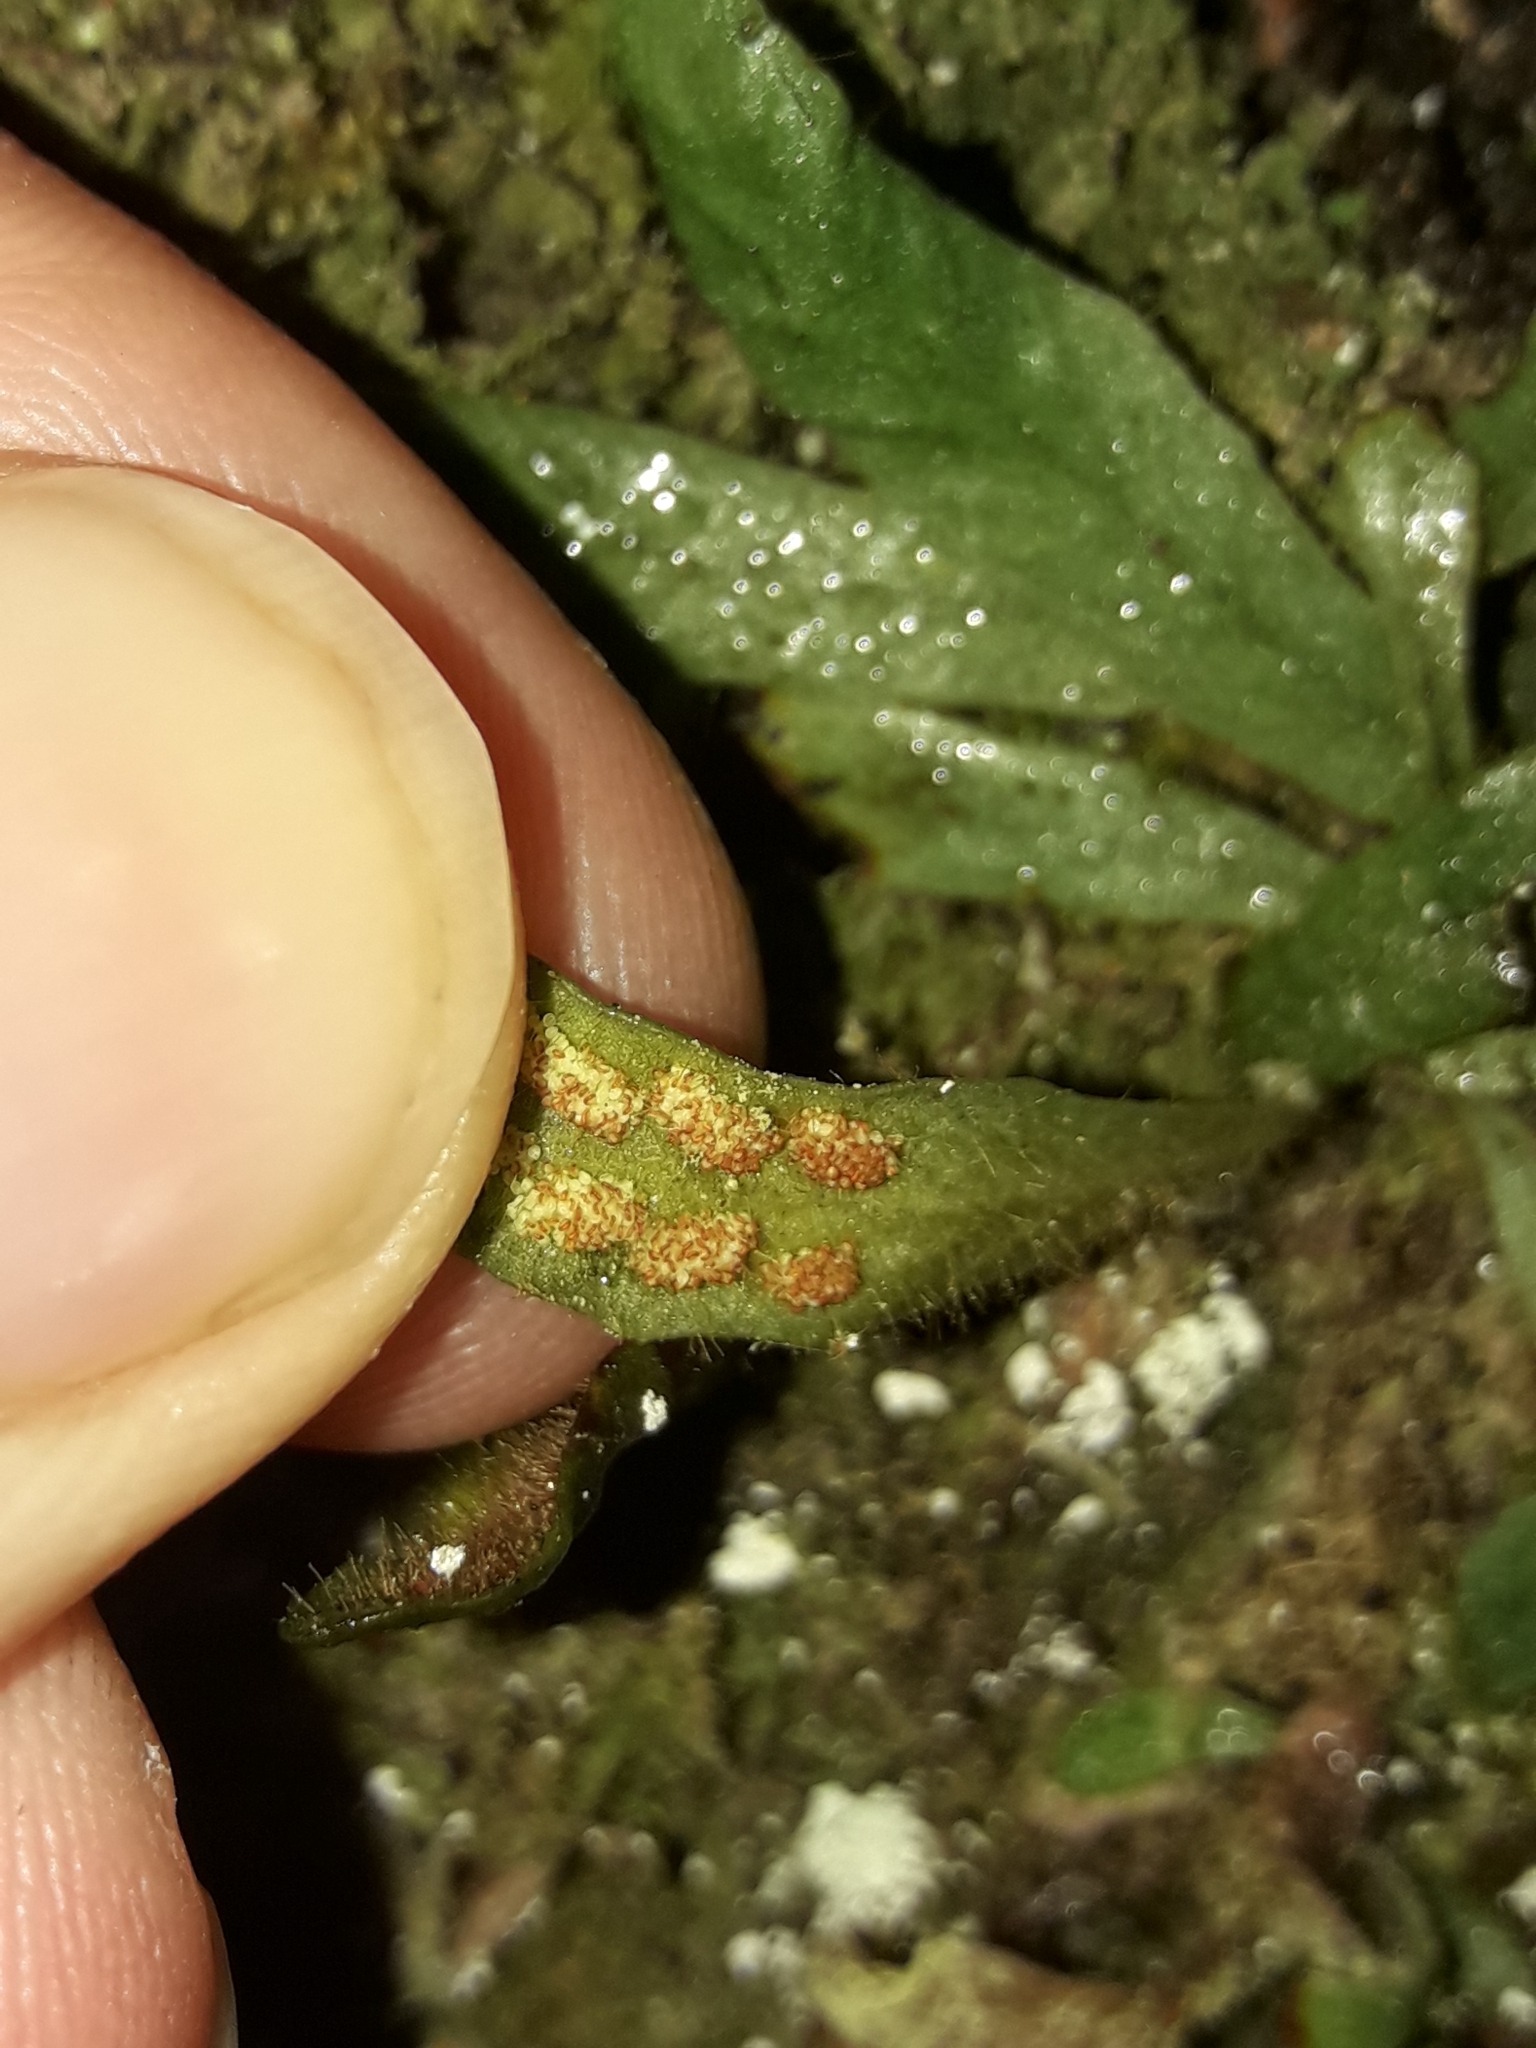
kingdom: Plantae
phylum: Tracheophyta
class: Polypodiopsida
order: Polypodiales
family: Polypodiaceae
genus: Notogrammitis
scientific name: Notogrammitis patagonica
